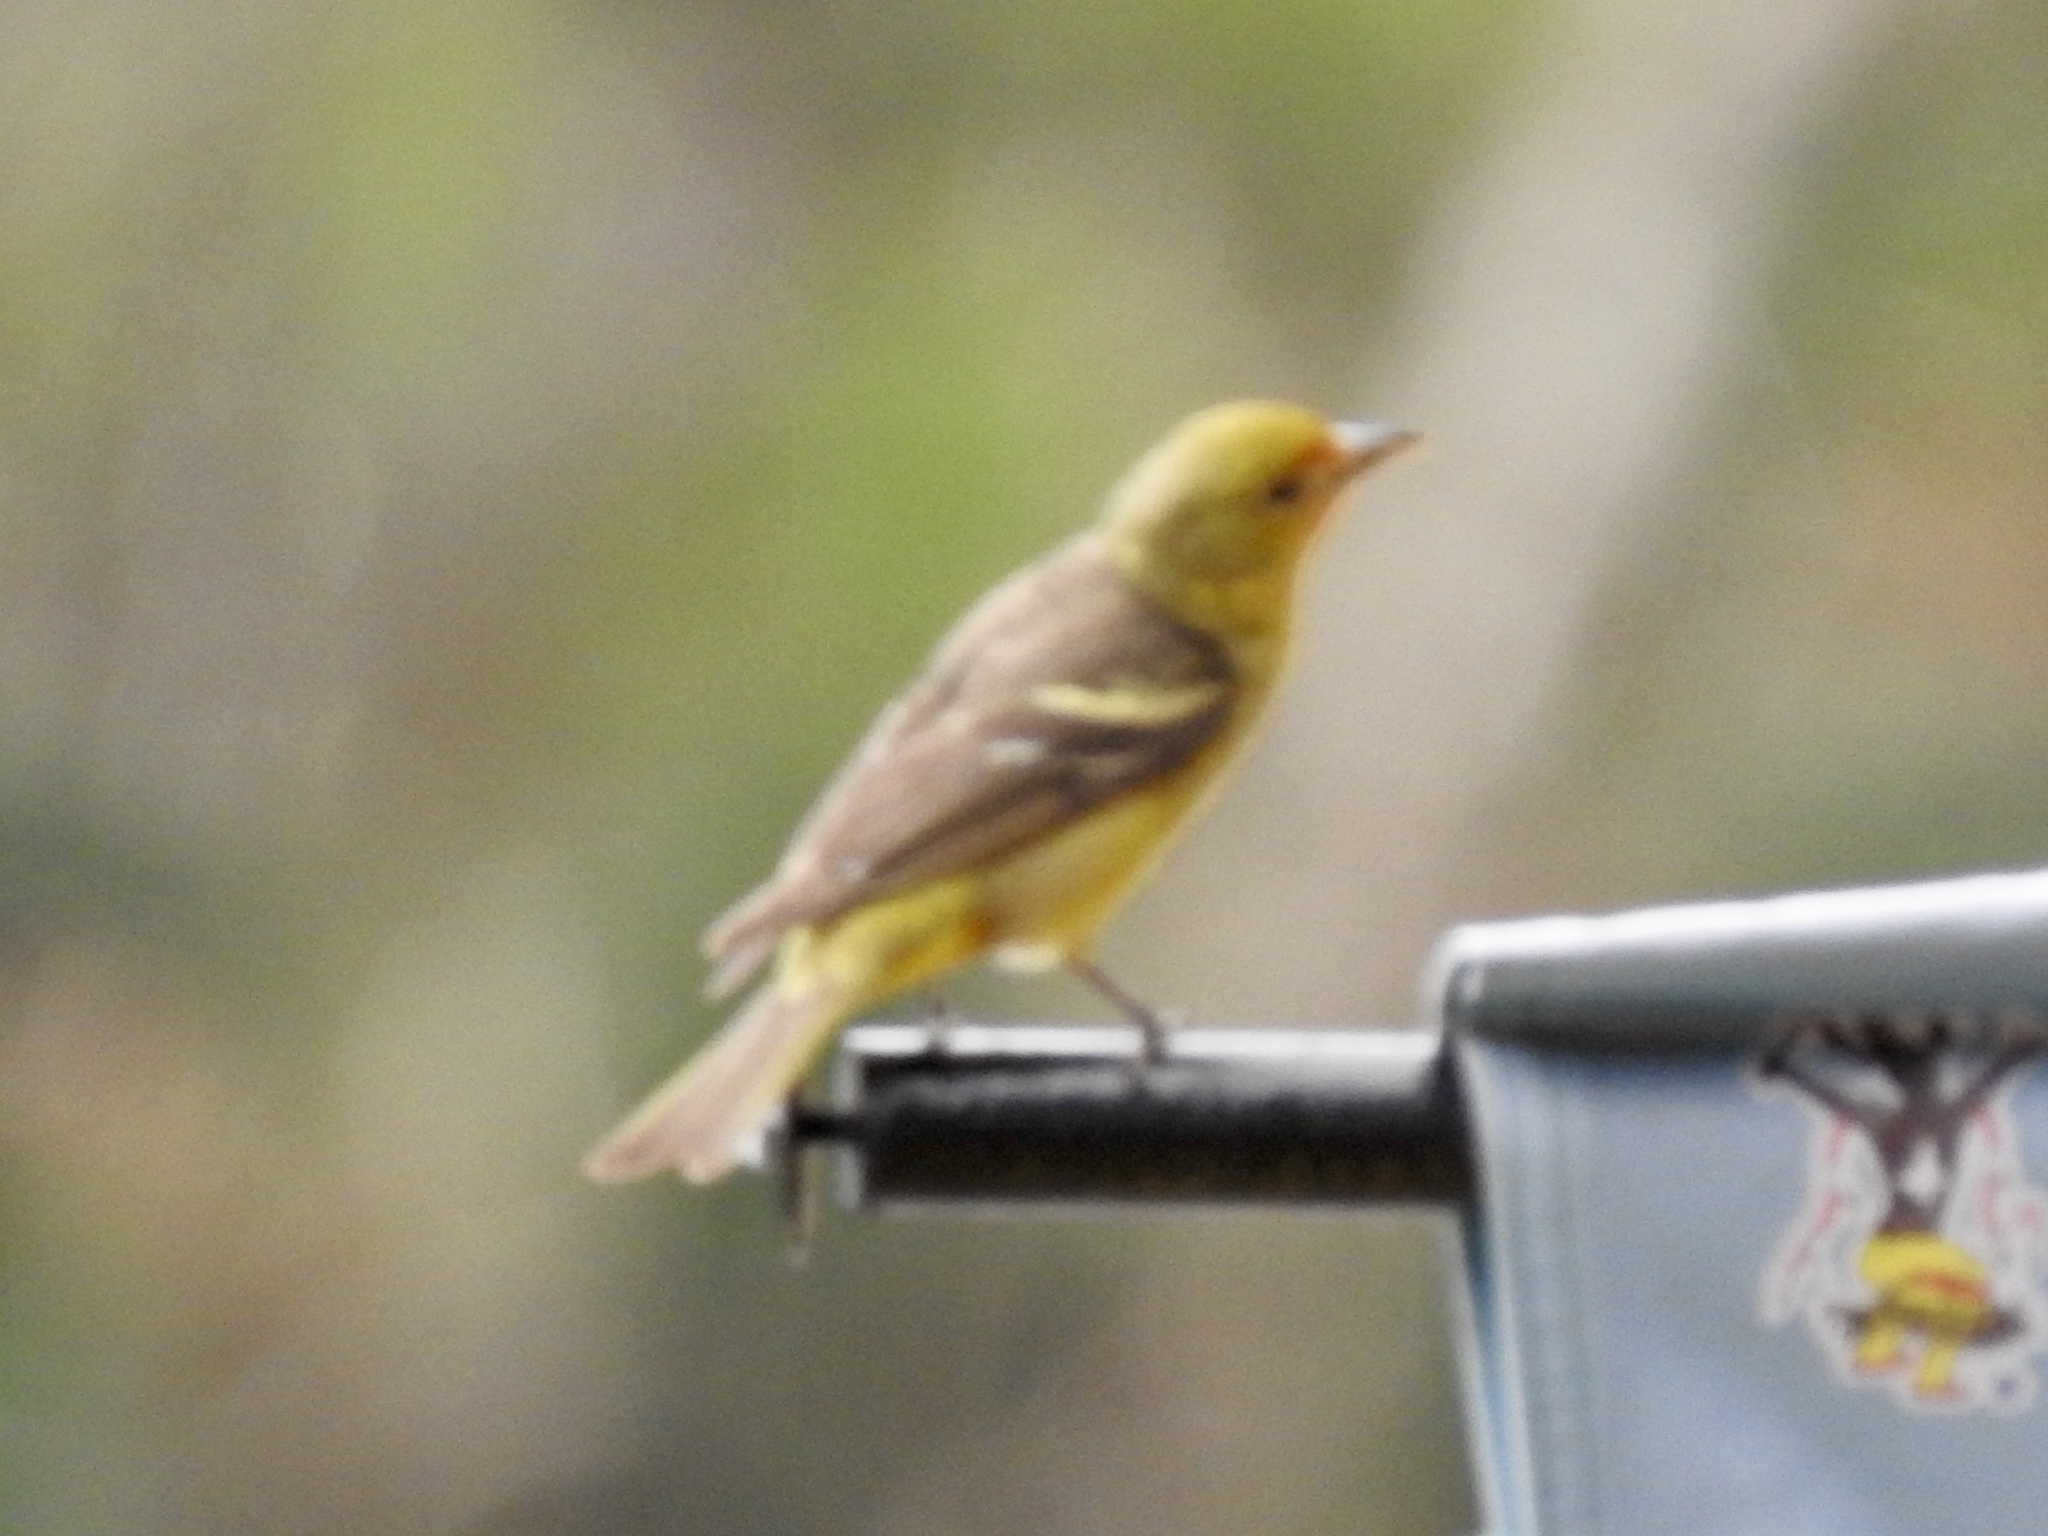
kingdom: Animalia
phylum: Chordata
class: Aves
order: Passeriformes
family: Cardinalidae
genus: Piranga
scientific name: Piranga ludoviciana
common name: Western tanager
